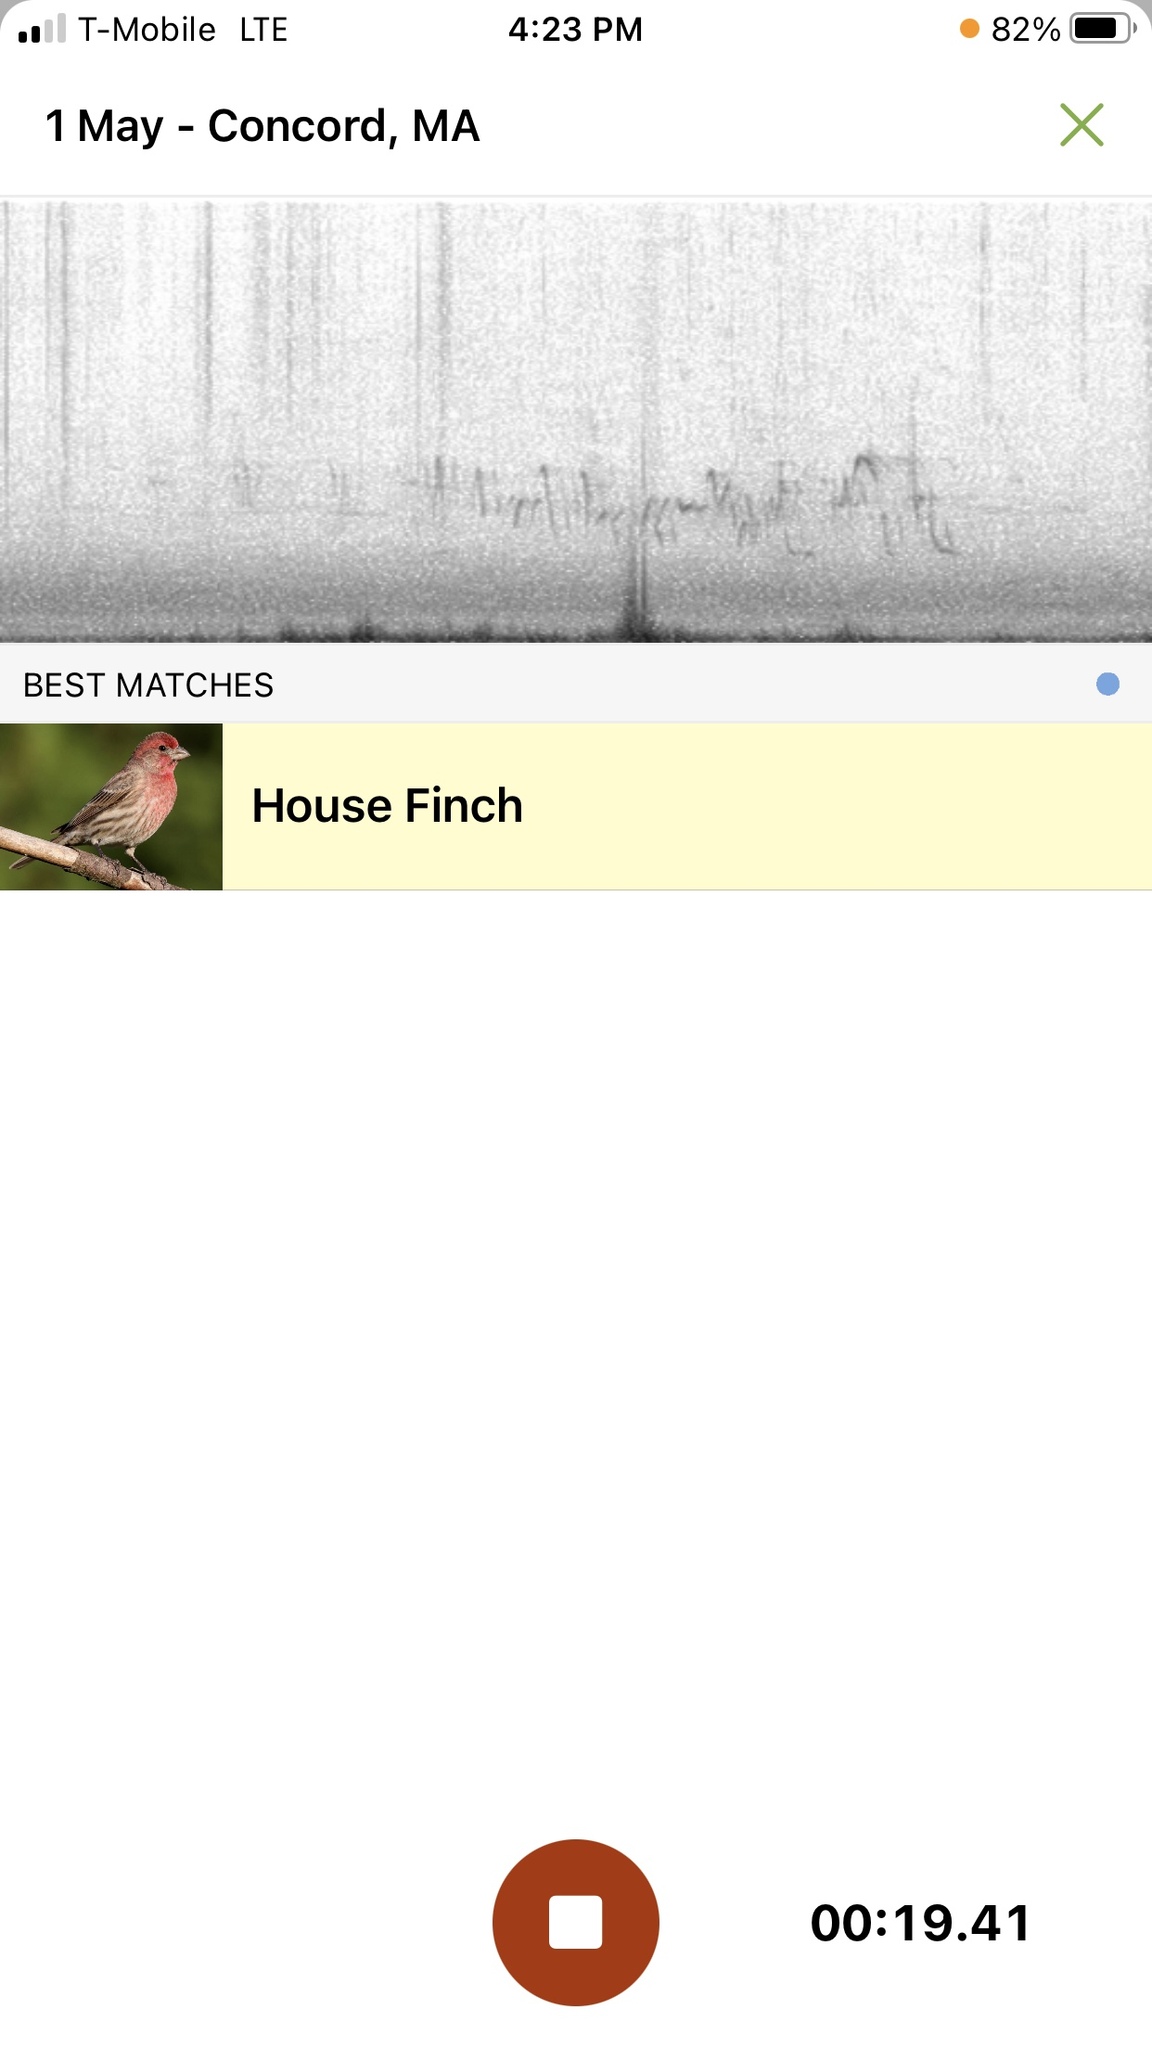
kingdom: Animalia
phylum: Chordata
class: Aves
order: Passeriformes
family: Fringillidae
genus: Haemorhous
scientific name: Haemorhous mexicanus
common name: House finch
